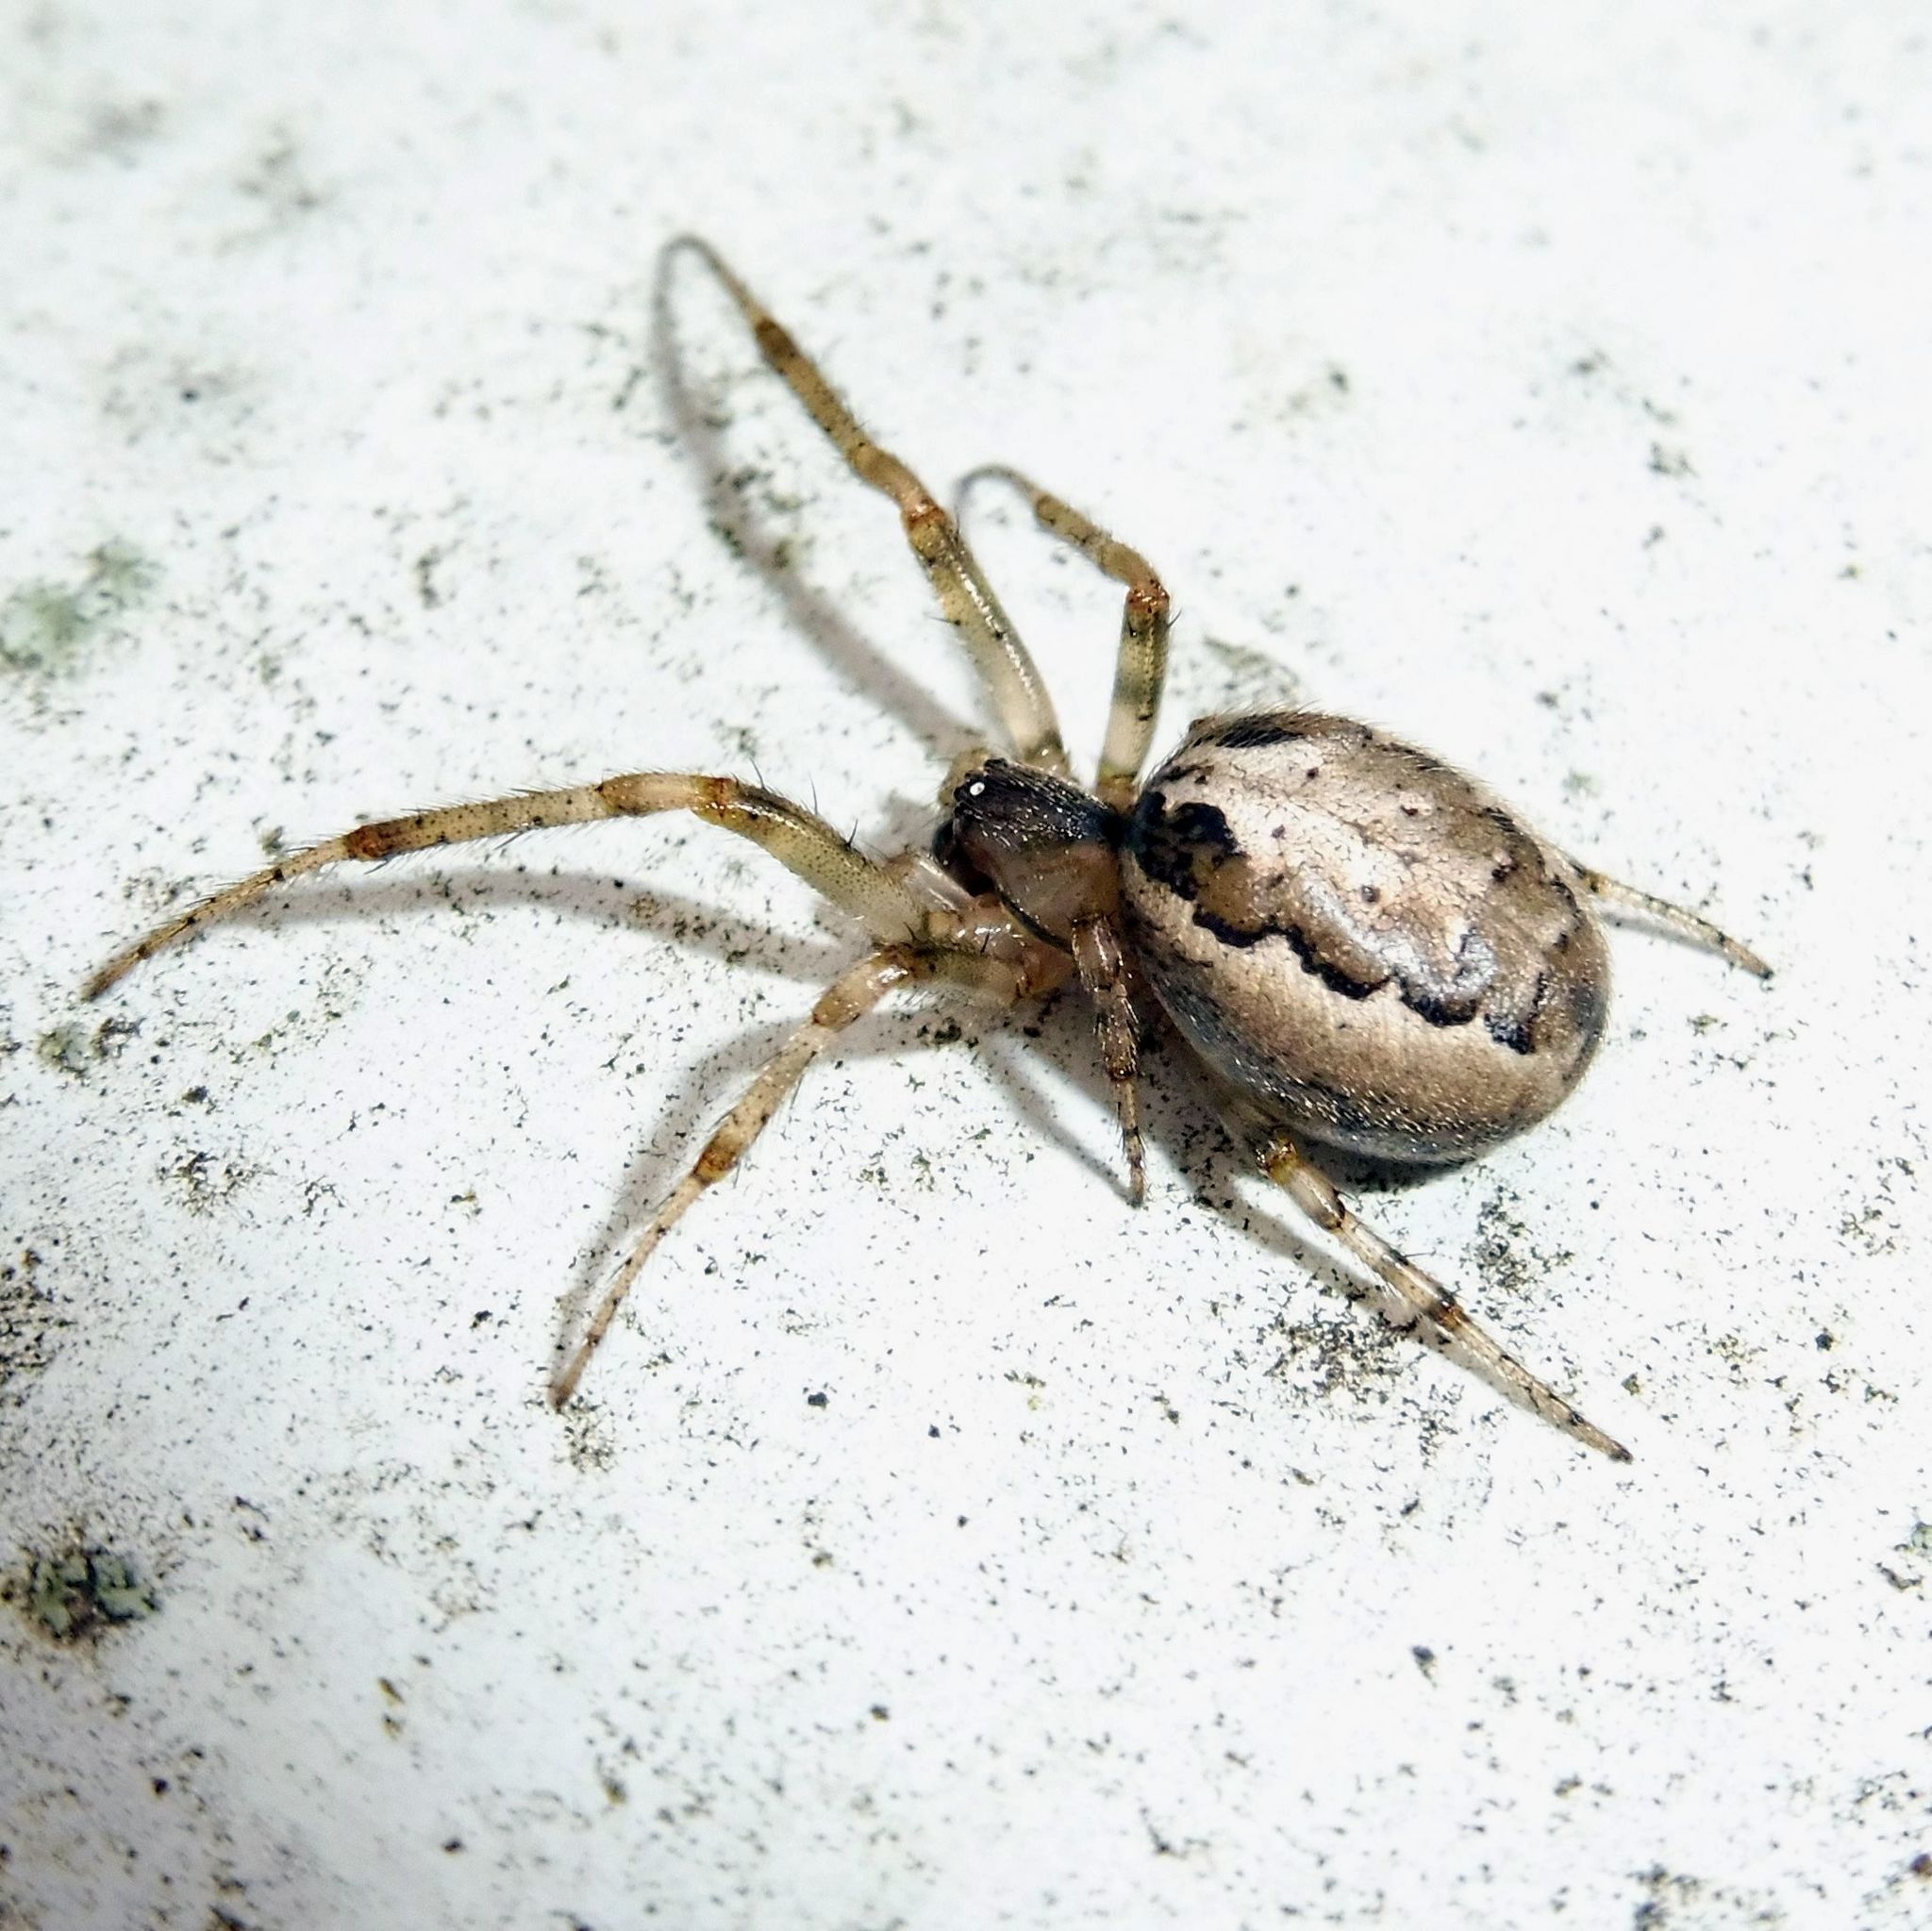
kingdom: Animalia
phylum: Arthropoda
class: Arachnida
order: Araneae
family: Araneidae
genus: Zygiella
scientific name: Zygiella x-notata
